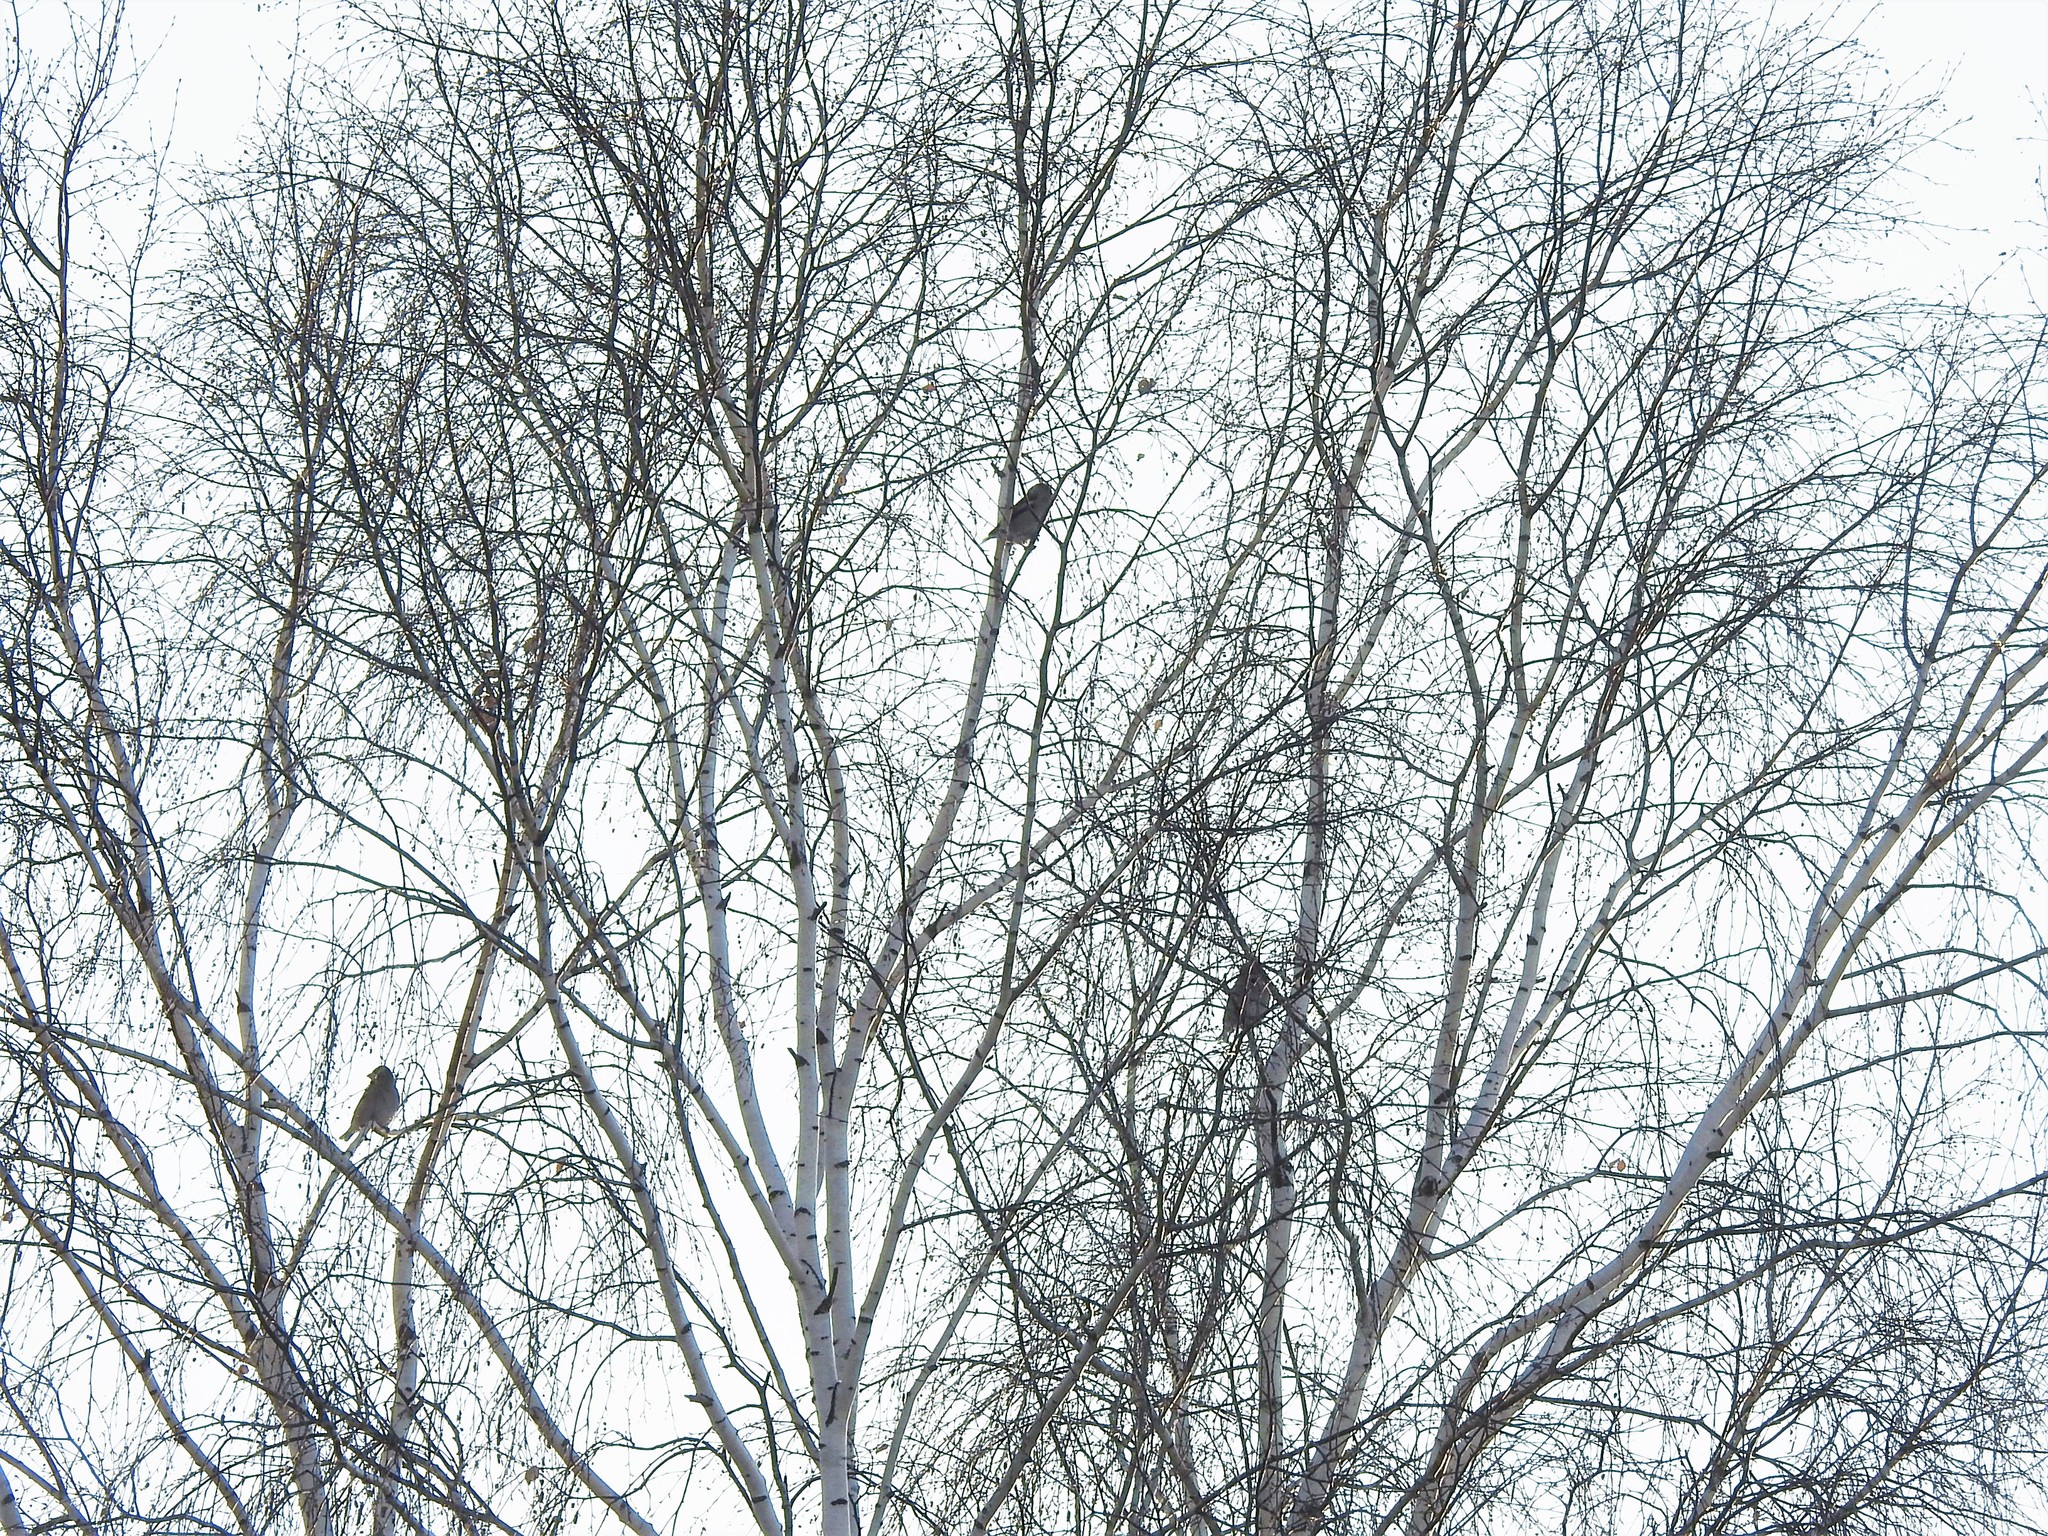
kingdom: Animalia
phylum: Chordata
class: Aves
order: Passeriformes
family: Fringillidae
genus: Coccothraustes
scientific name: Coccothraustes coccothraustes
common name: Hawfinch
